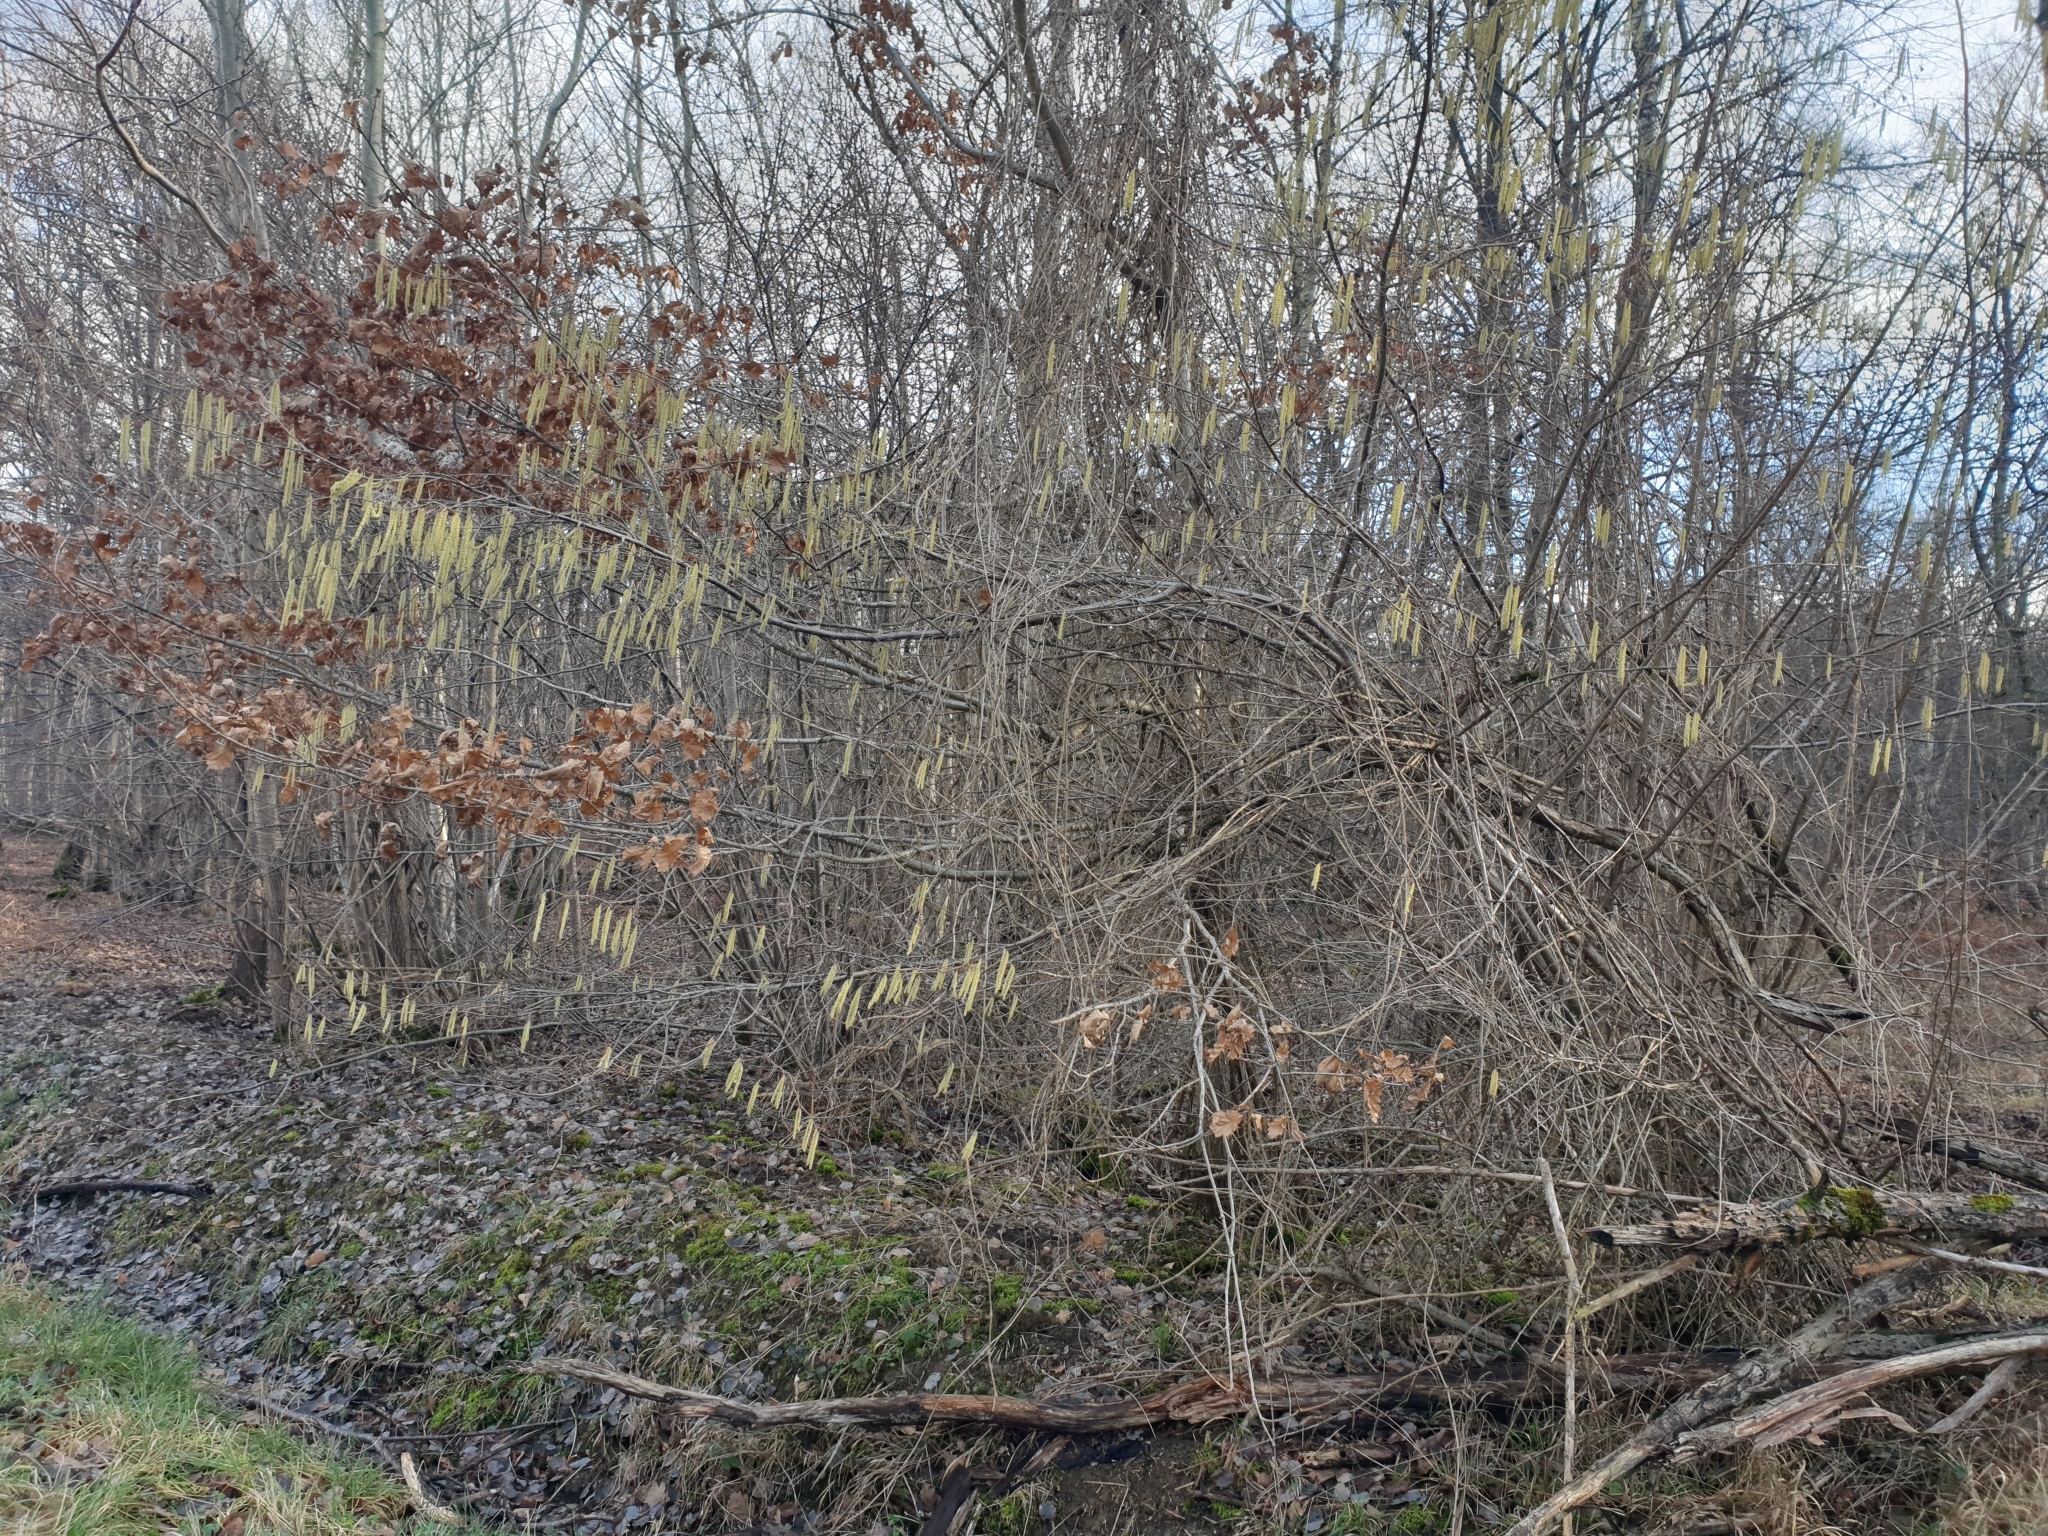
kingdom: Plantae
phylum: Tracheophyta
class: Magnoliopsida
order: Fagales
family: Betulaceae
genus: Corylus
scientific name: Corylus avellana
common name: European hazel
